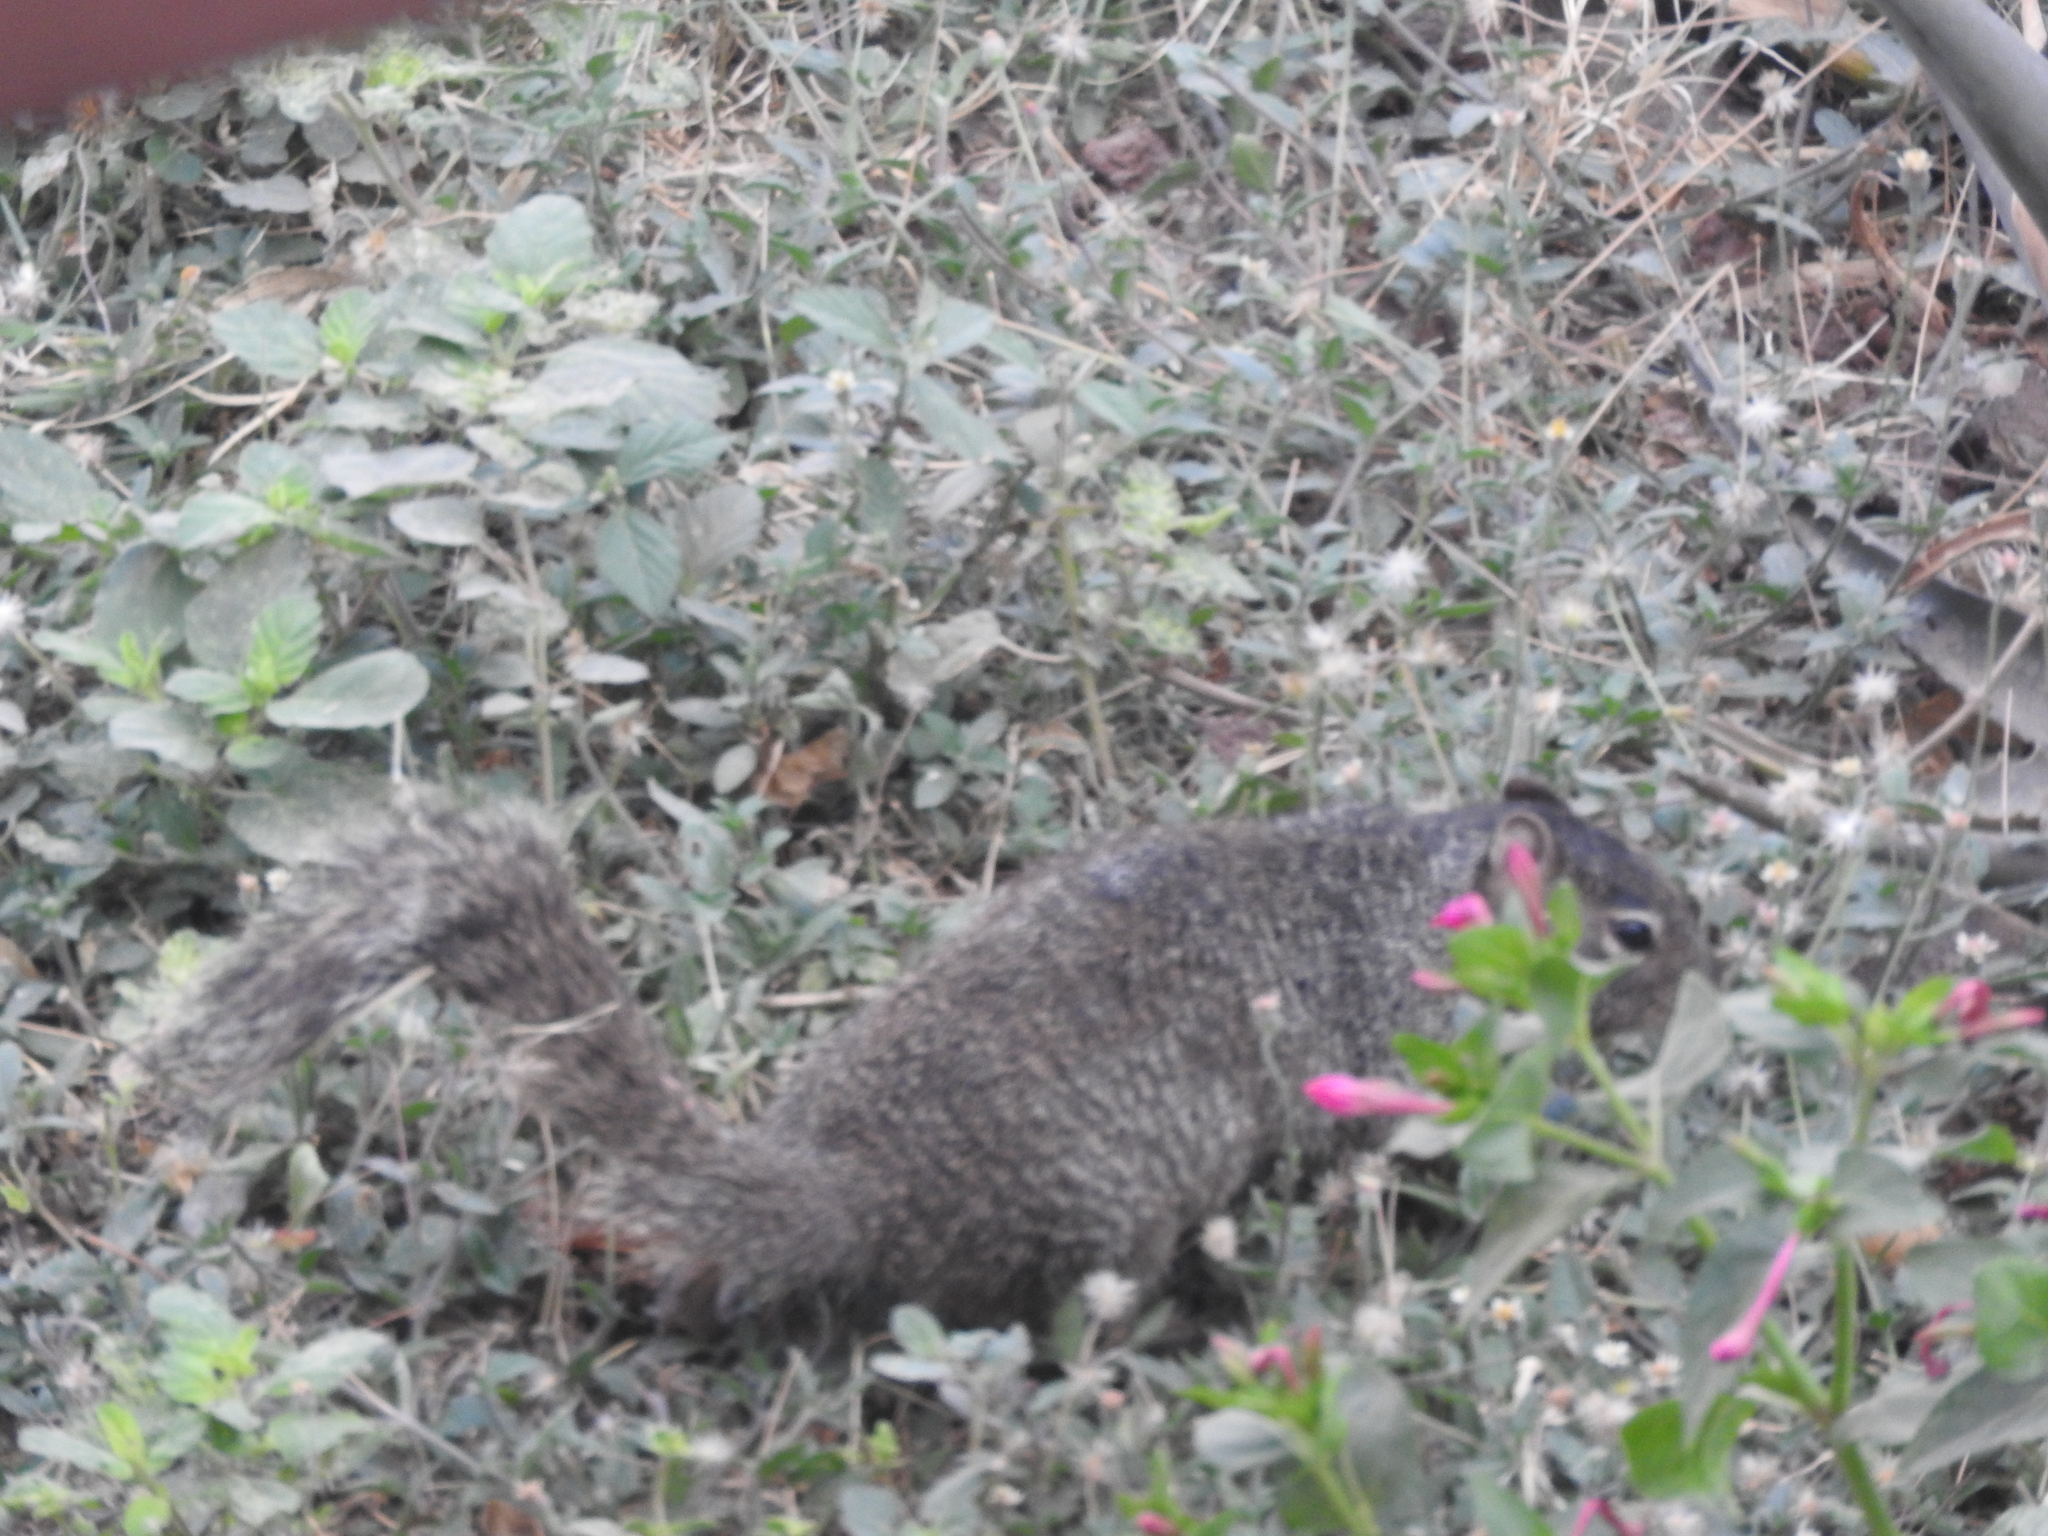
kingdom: Animalia
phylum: Chordata
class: Mammalia
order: Rodentia
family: Sciuridae
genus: Otospermophilus
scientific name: Otospermophilus variegatus
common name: Rock squirrel
